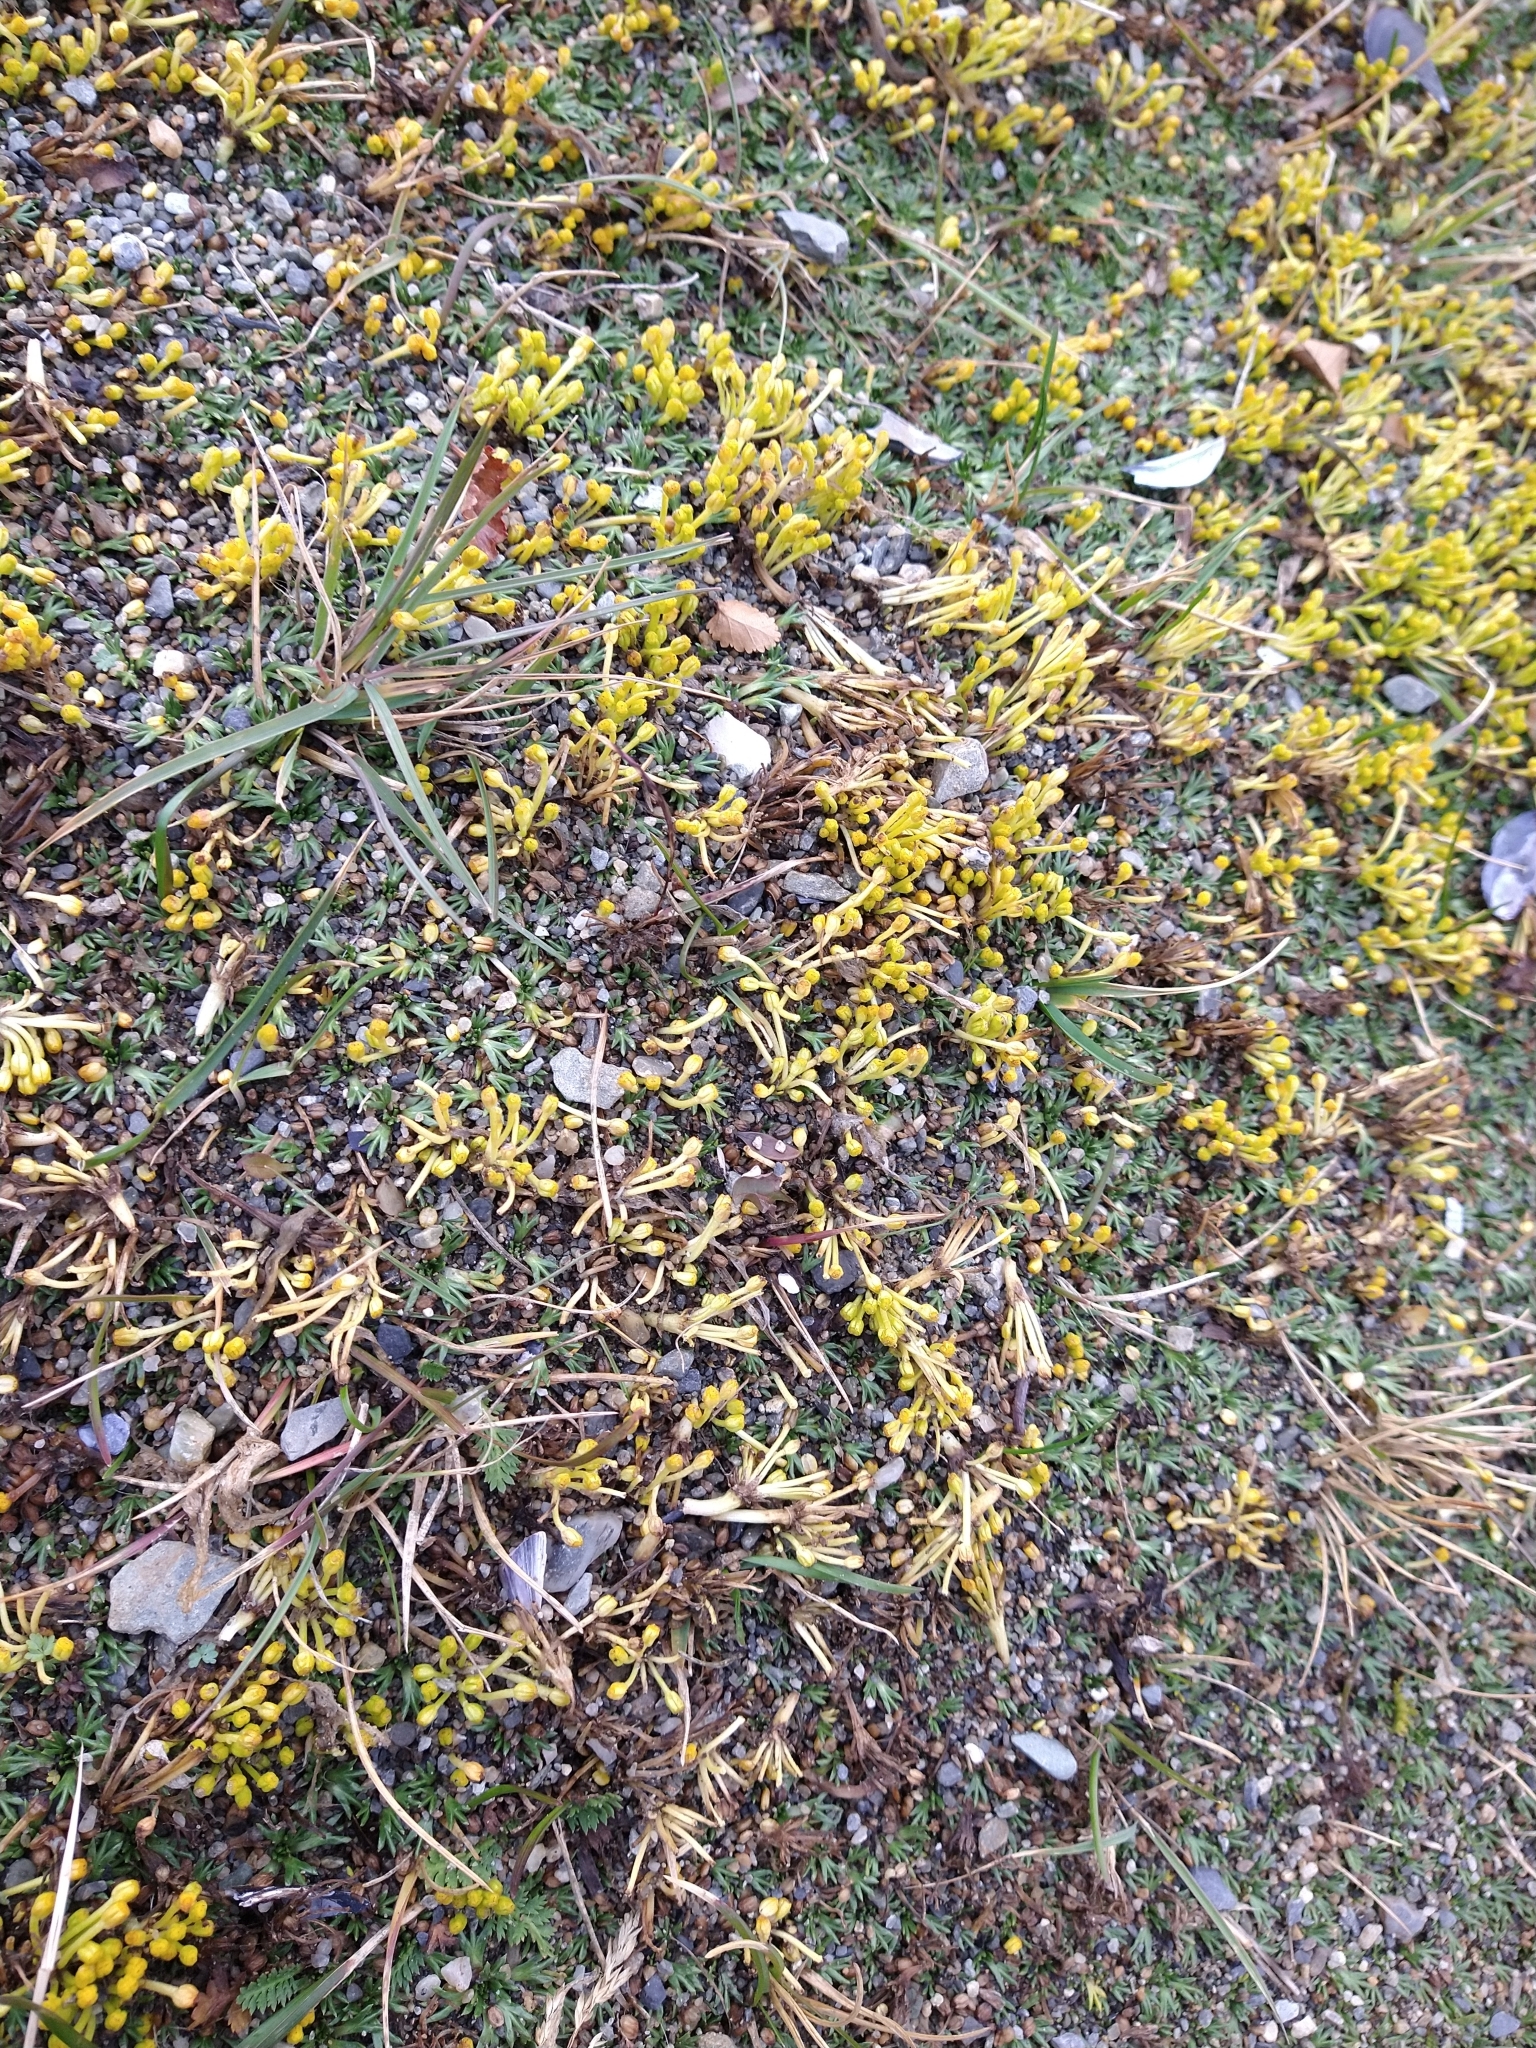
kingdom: Plantae
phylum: Tracheophyta
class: Magnoliopsida
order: Apiales
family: Apiaceae
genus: Azorella
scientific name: Azorella trifurcata
